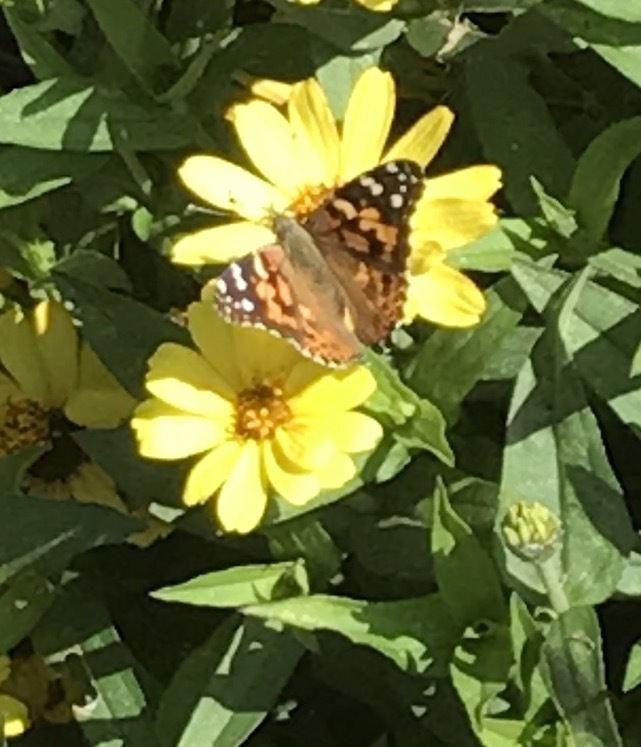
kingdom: Animalia
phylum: Arthropoda
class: Insecta
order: Lepidoptera
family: Nymphalidae
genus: Vanessa
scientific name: Vanessa cardui
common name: Painted lady
